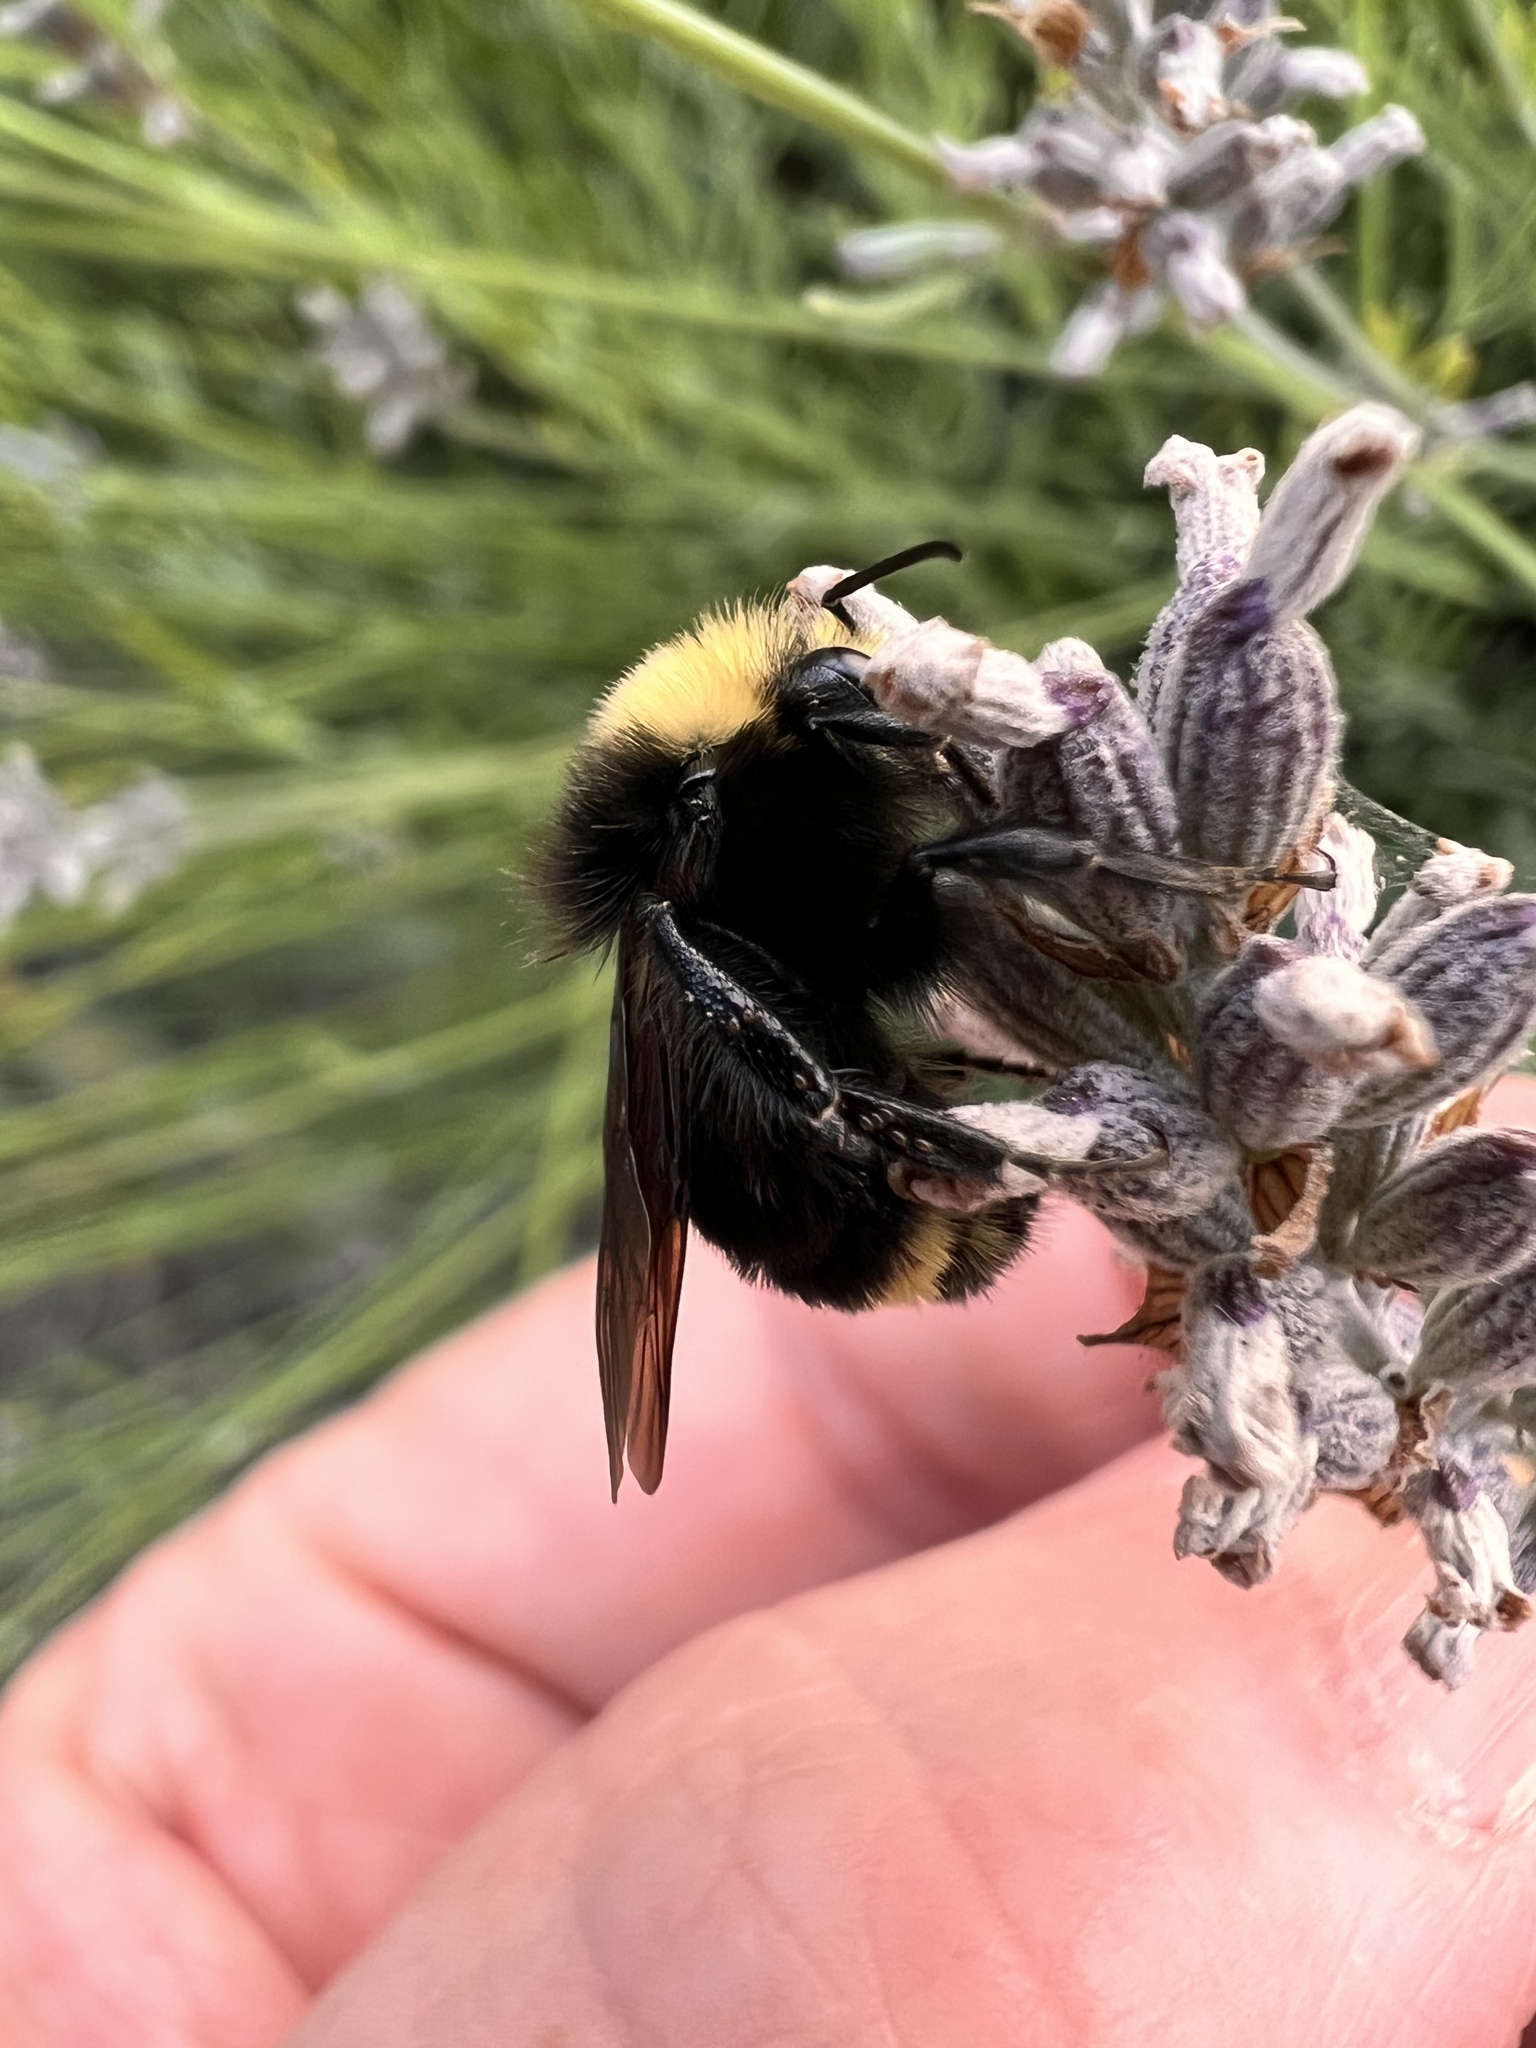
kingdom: Animalia
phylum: Arthropoda
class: Insecta
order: Hymenoptera
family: Apidae
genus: Bombus
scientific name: Bombus vosnesenskii
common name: Vosnesensky bumble bee
